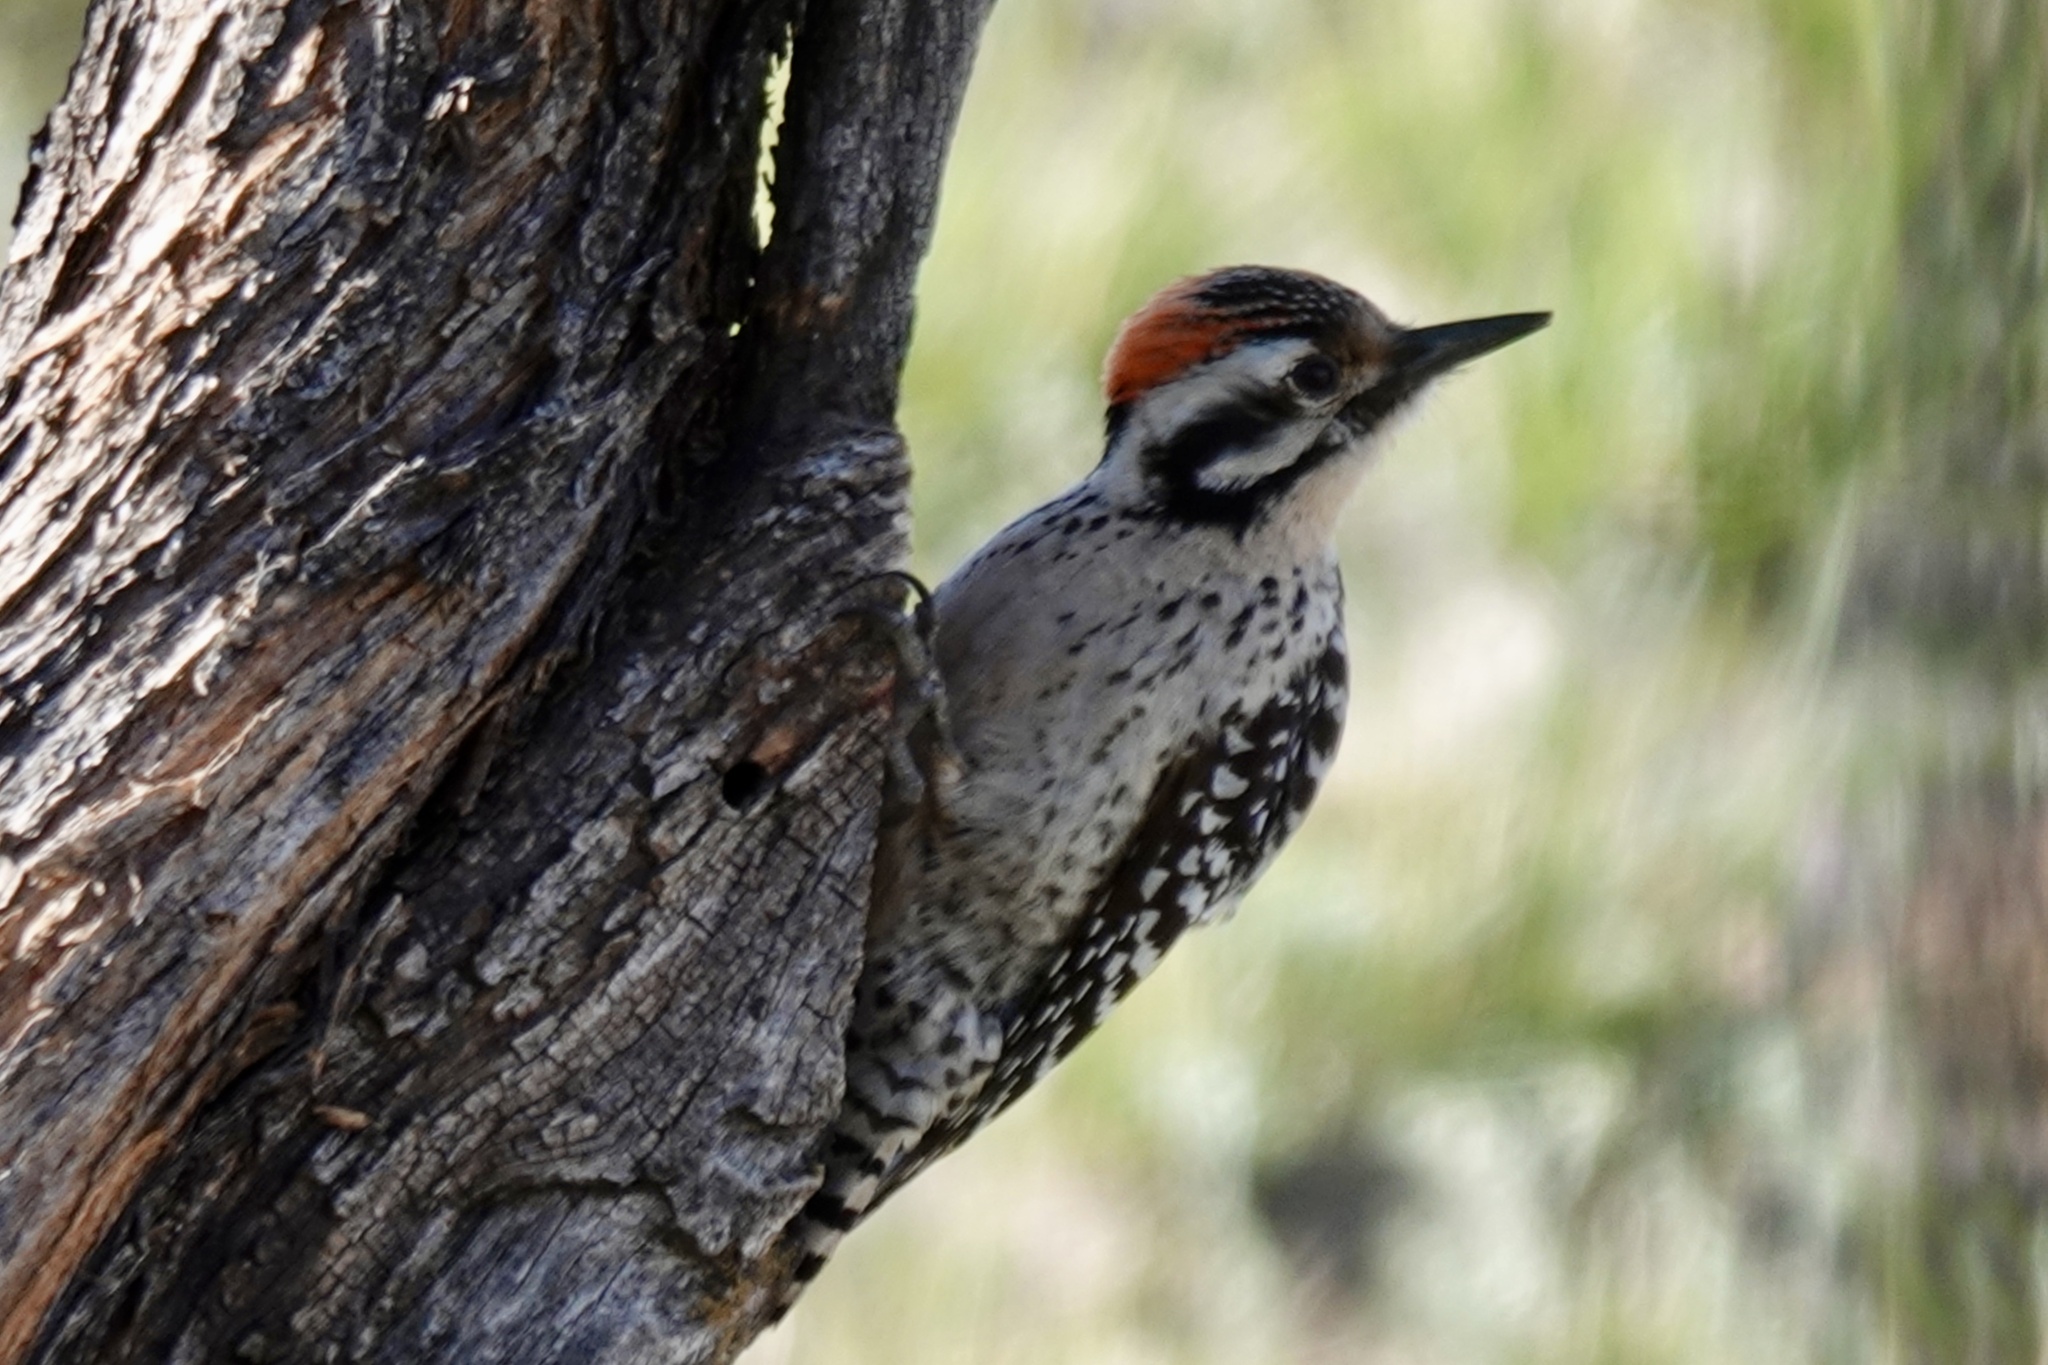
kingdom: Animalia
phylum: Chordata
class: Aves
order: Piciformes
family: Picidae
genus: Dryobates
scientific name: Dryobates scalaris
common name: Ladder-backed woodpecker
